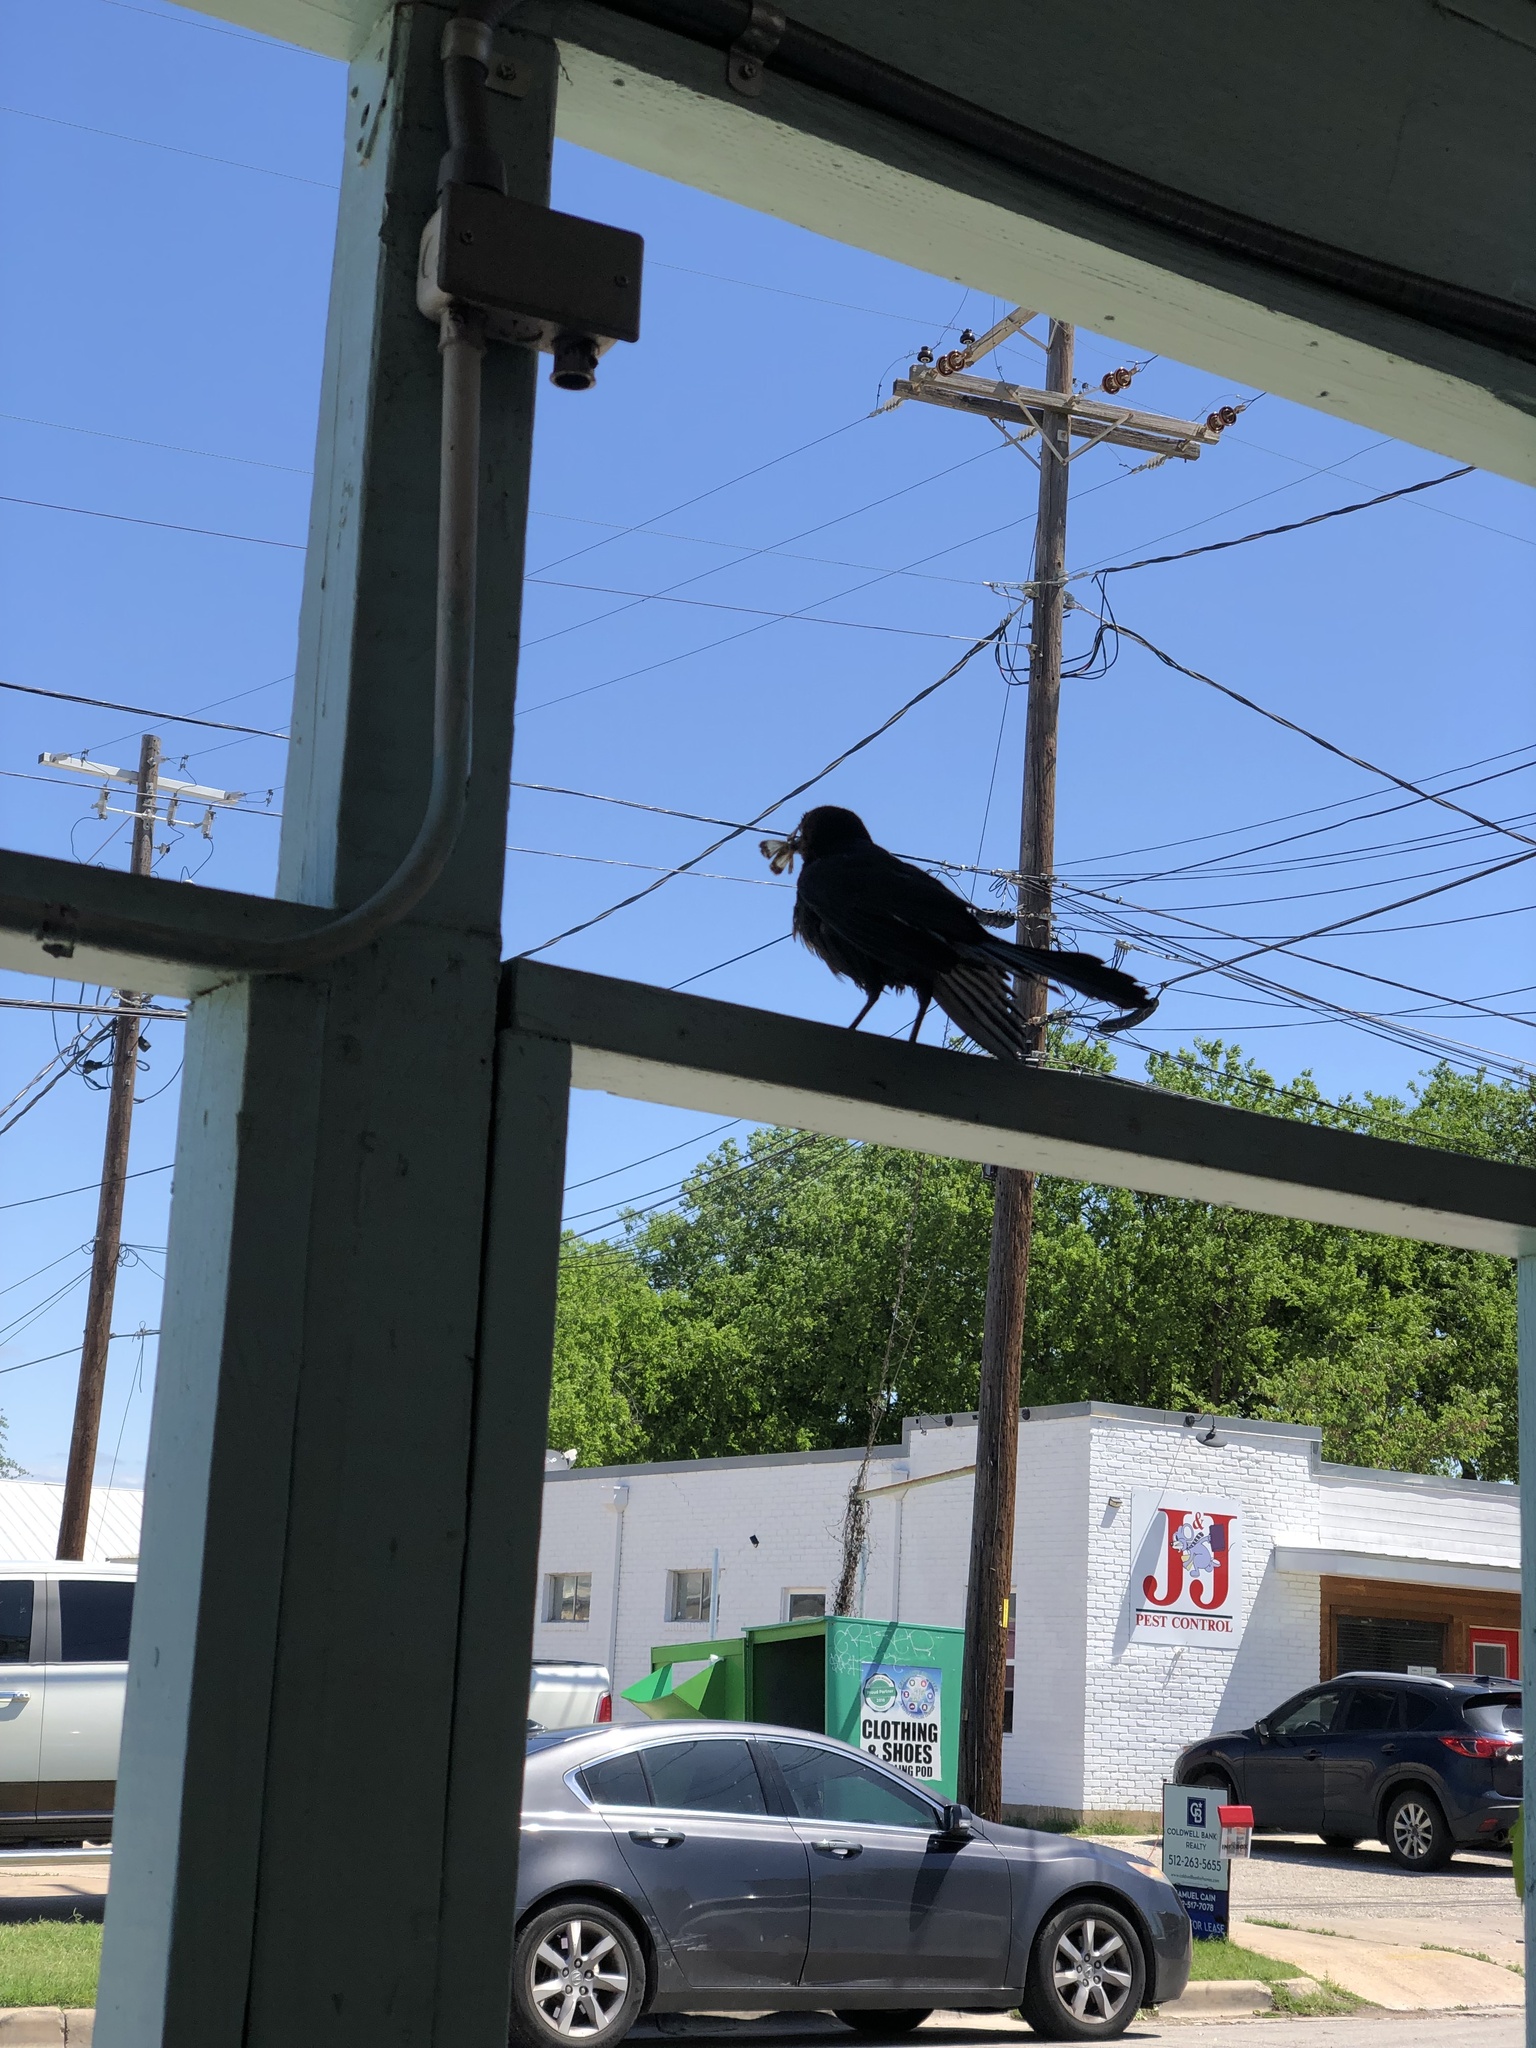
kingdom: Animalia
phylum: Chordata
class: Aves
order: Passeriformes
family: Icteridae
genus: Quiscalus
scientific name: Quiscalus mexicanus
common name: Great-tailed grackle
